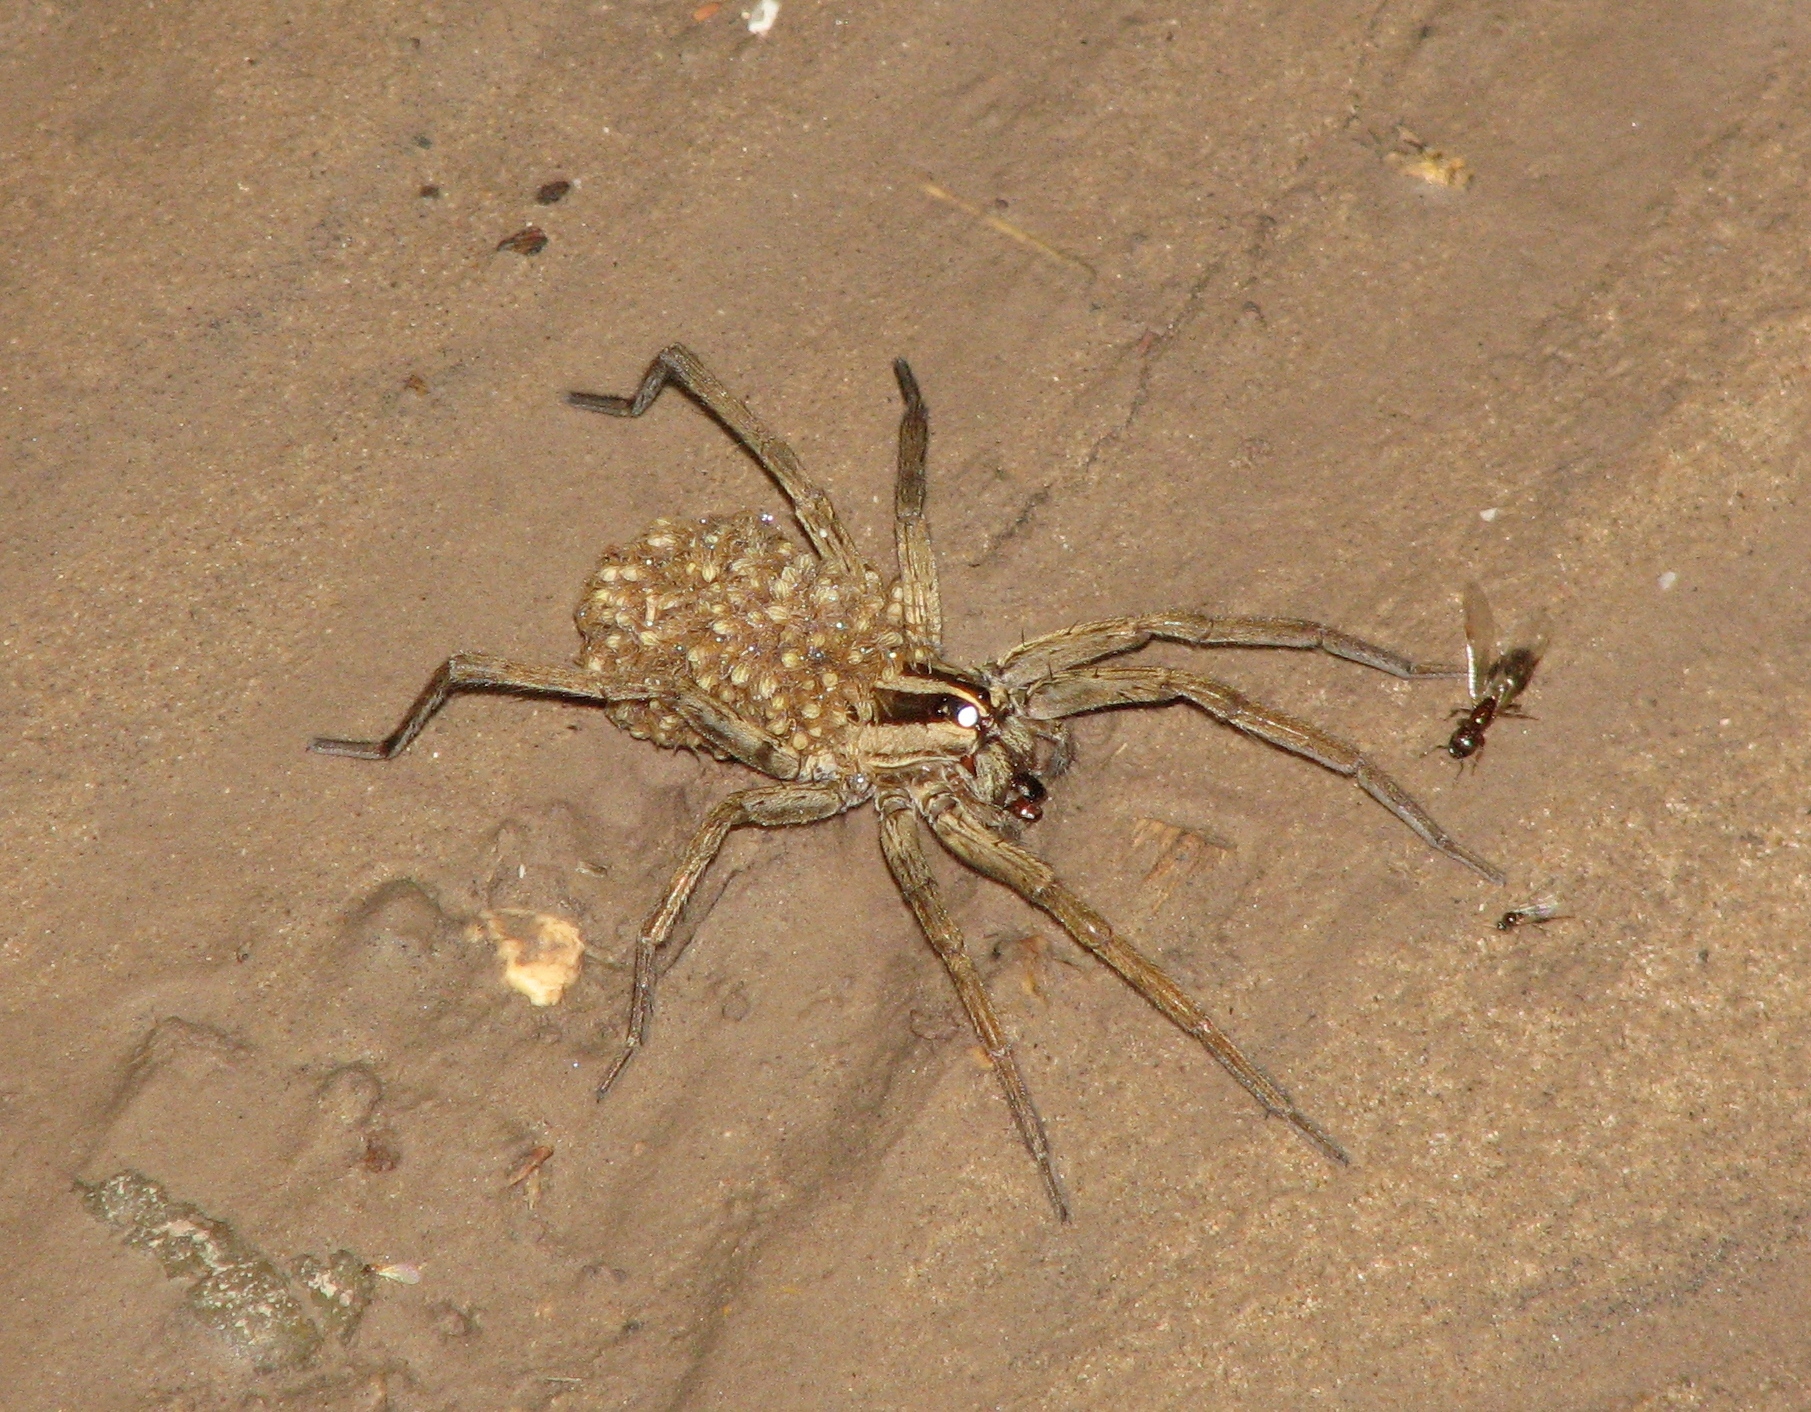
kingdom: Animalia
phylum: Arthropoda
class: Arachnida
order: Araneae
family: Lycosidae
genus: Rabidosa
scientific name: Rabidosa
